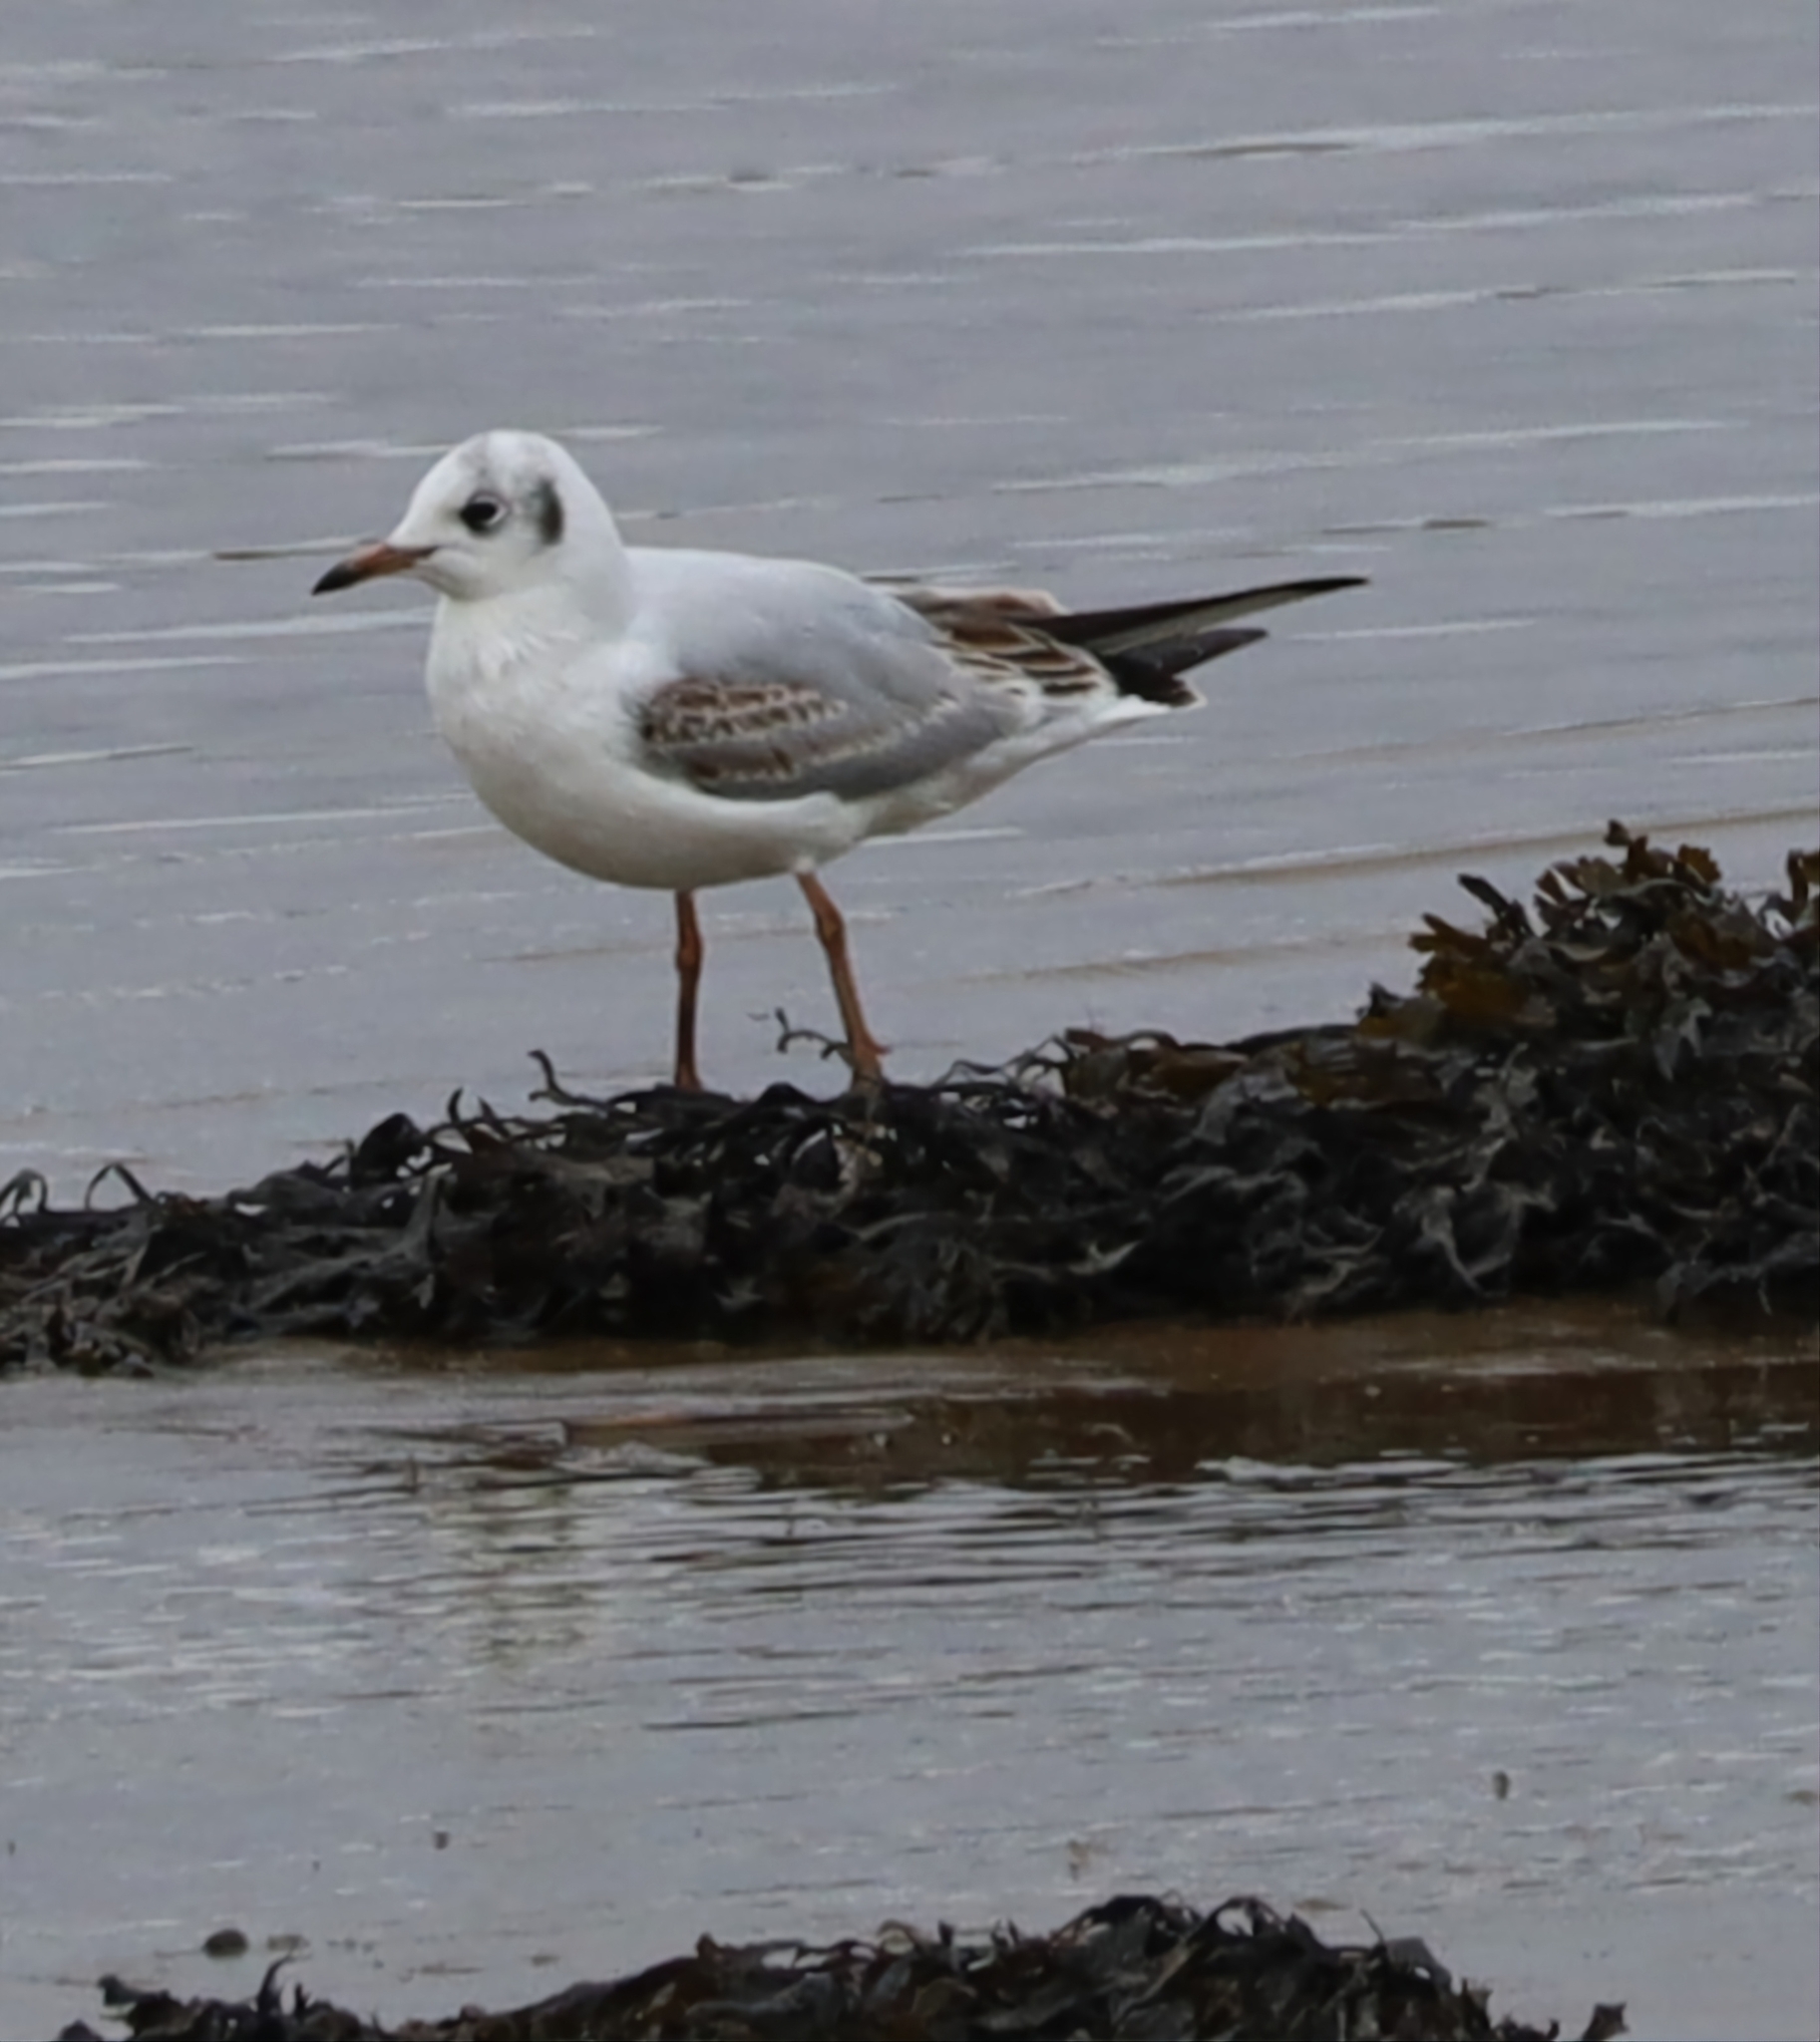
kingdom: Animalia
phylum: Chordata
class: Aves
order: Charadriiformes
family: Laridae
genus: Chroicocephalus
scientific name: Chroicocephalus ridibundus
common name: Black-headed gull
